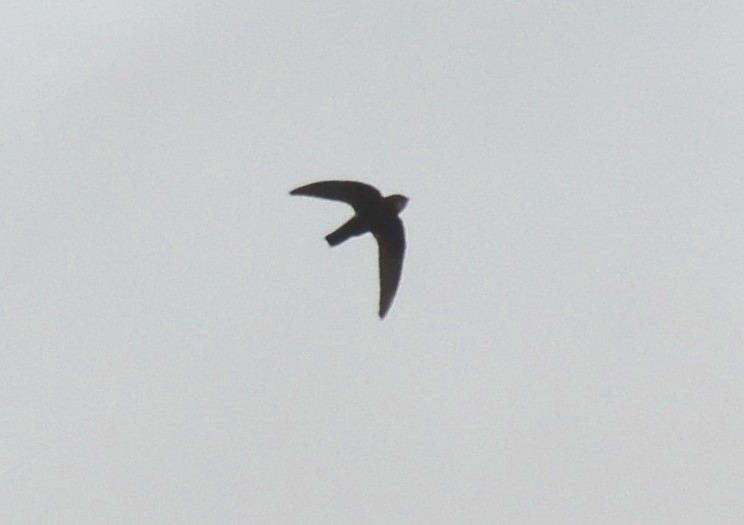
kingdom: Animalia
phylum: Chordata
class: Aves
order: Apodiformes
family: Apodidae
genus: Apus
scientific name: Apus affinis
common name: Little swift
